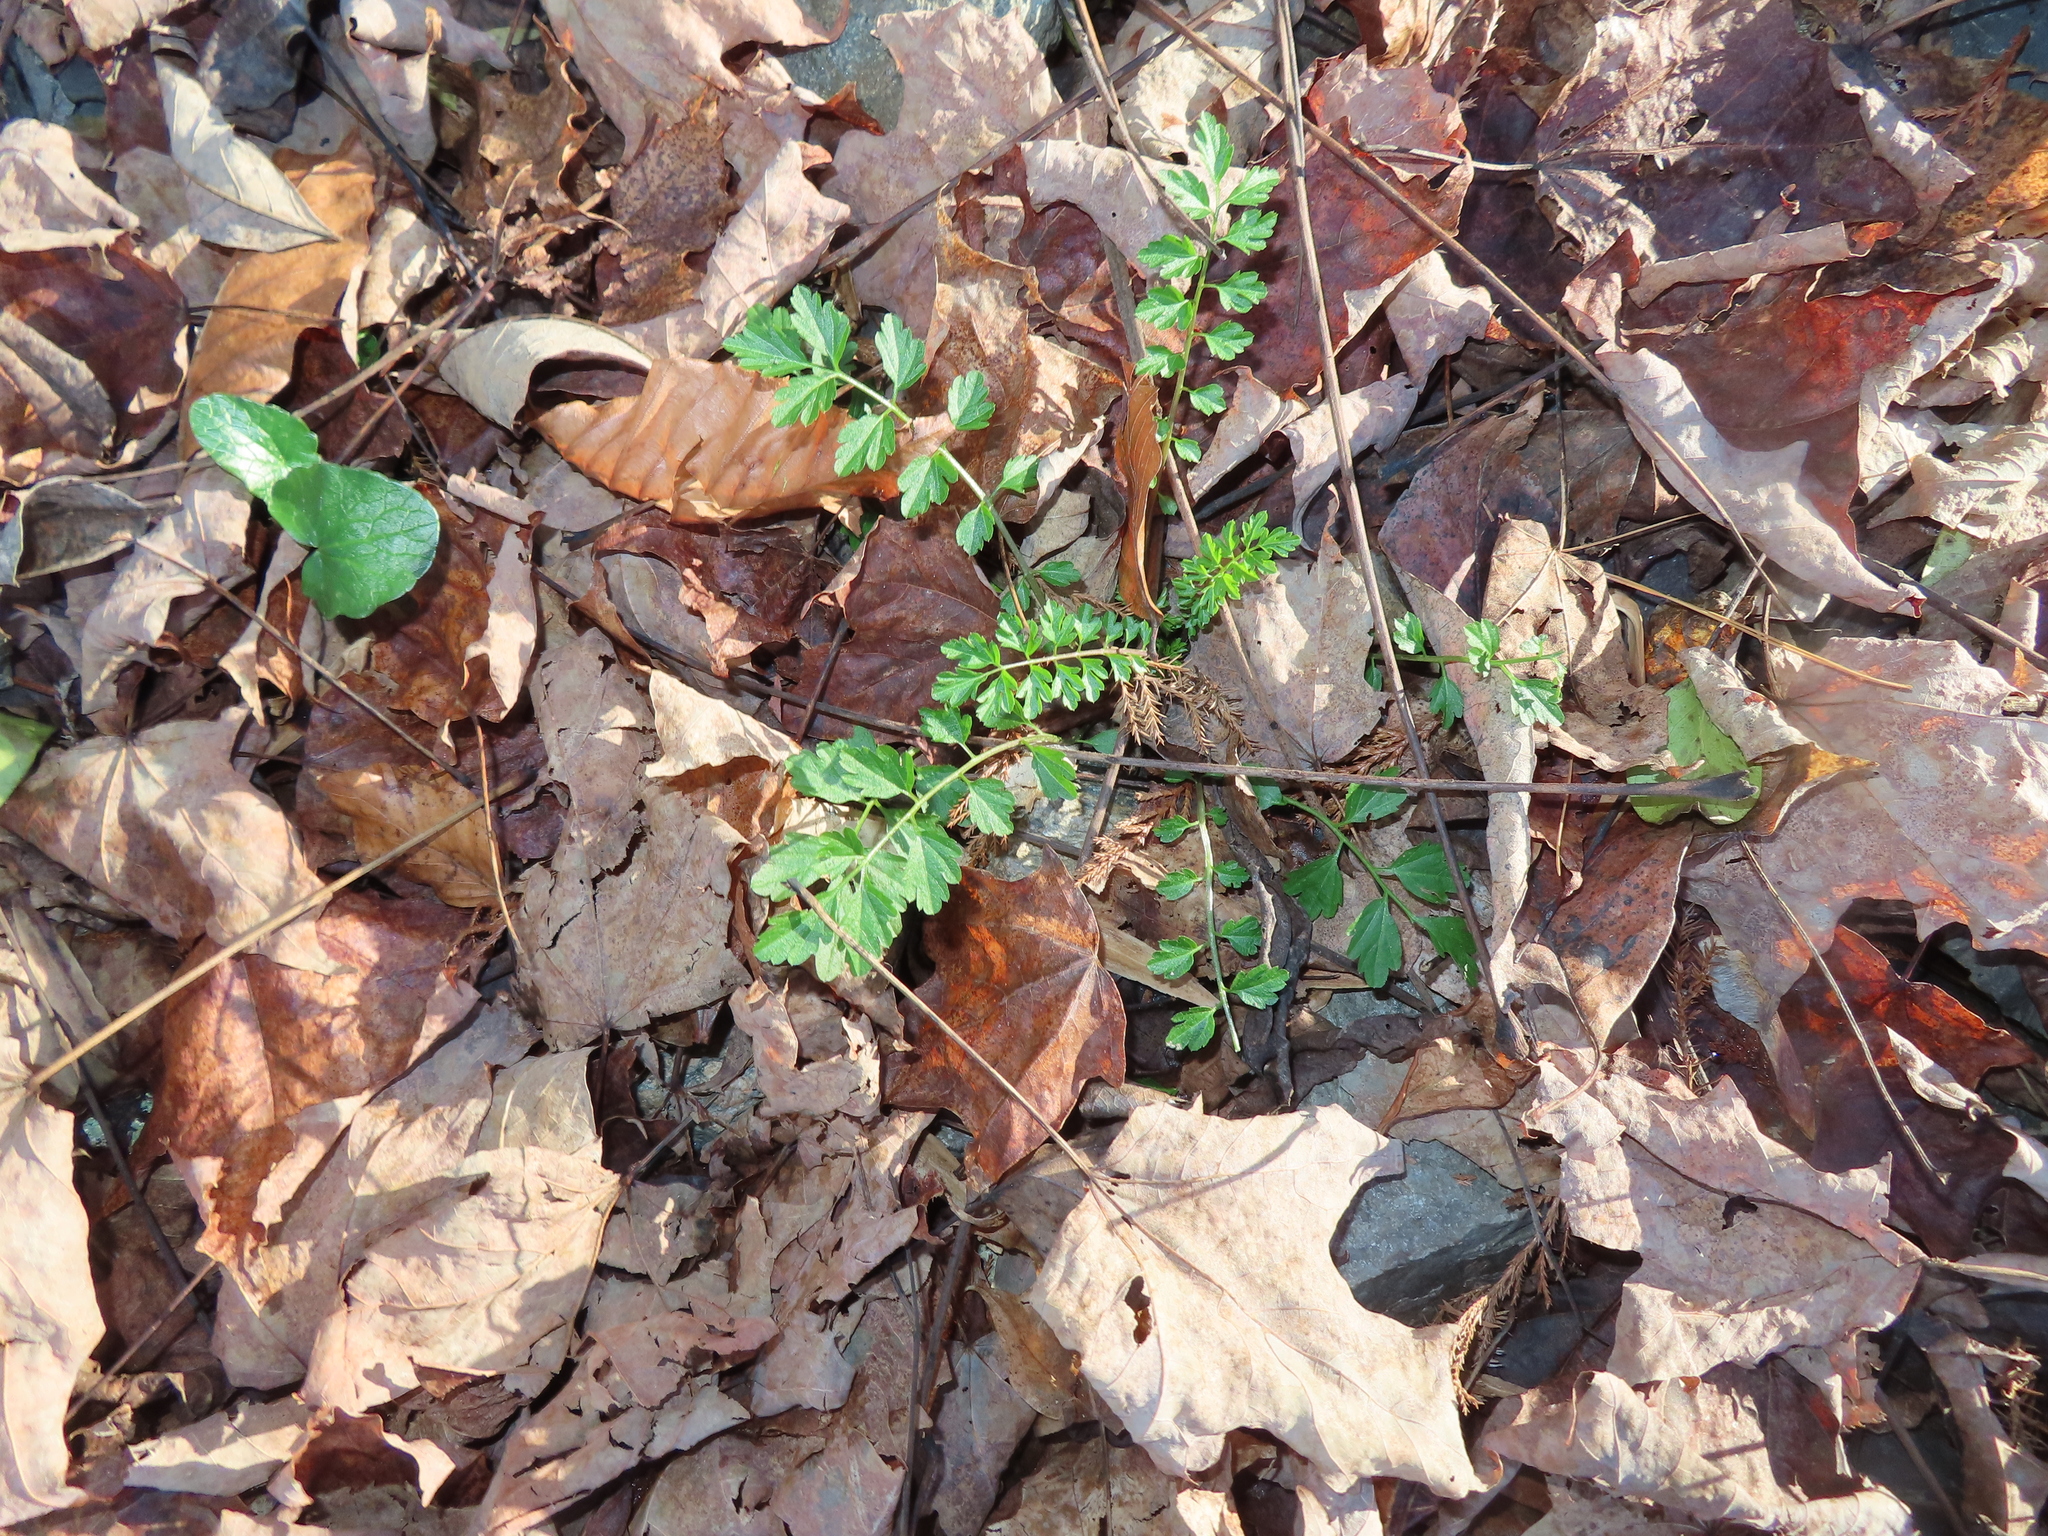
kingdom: Plantae
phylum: Tracheophyta
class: Magnoliopsida
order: Brassicales
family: Brassicaceae
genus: Cardamine
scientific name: Cardamine impatiens
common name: Narrow-leaved bitter-cress
